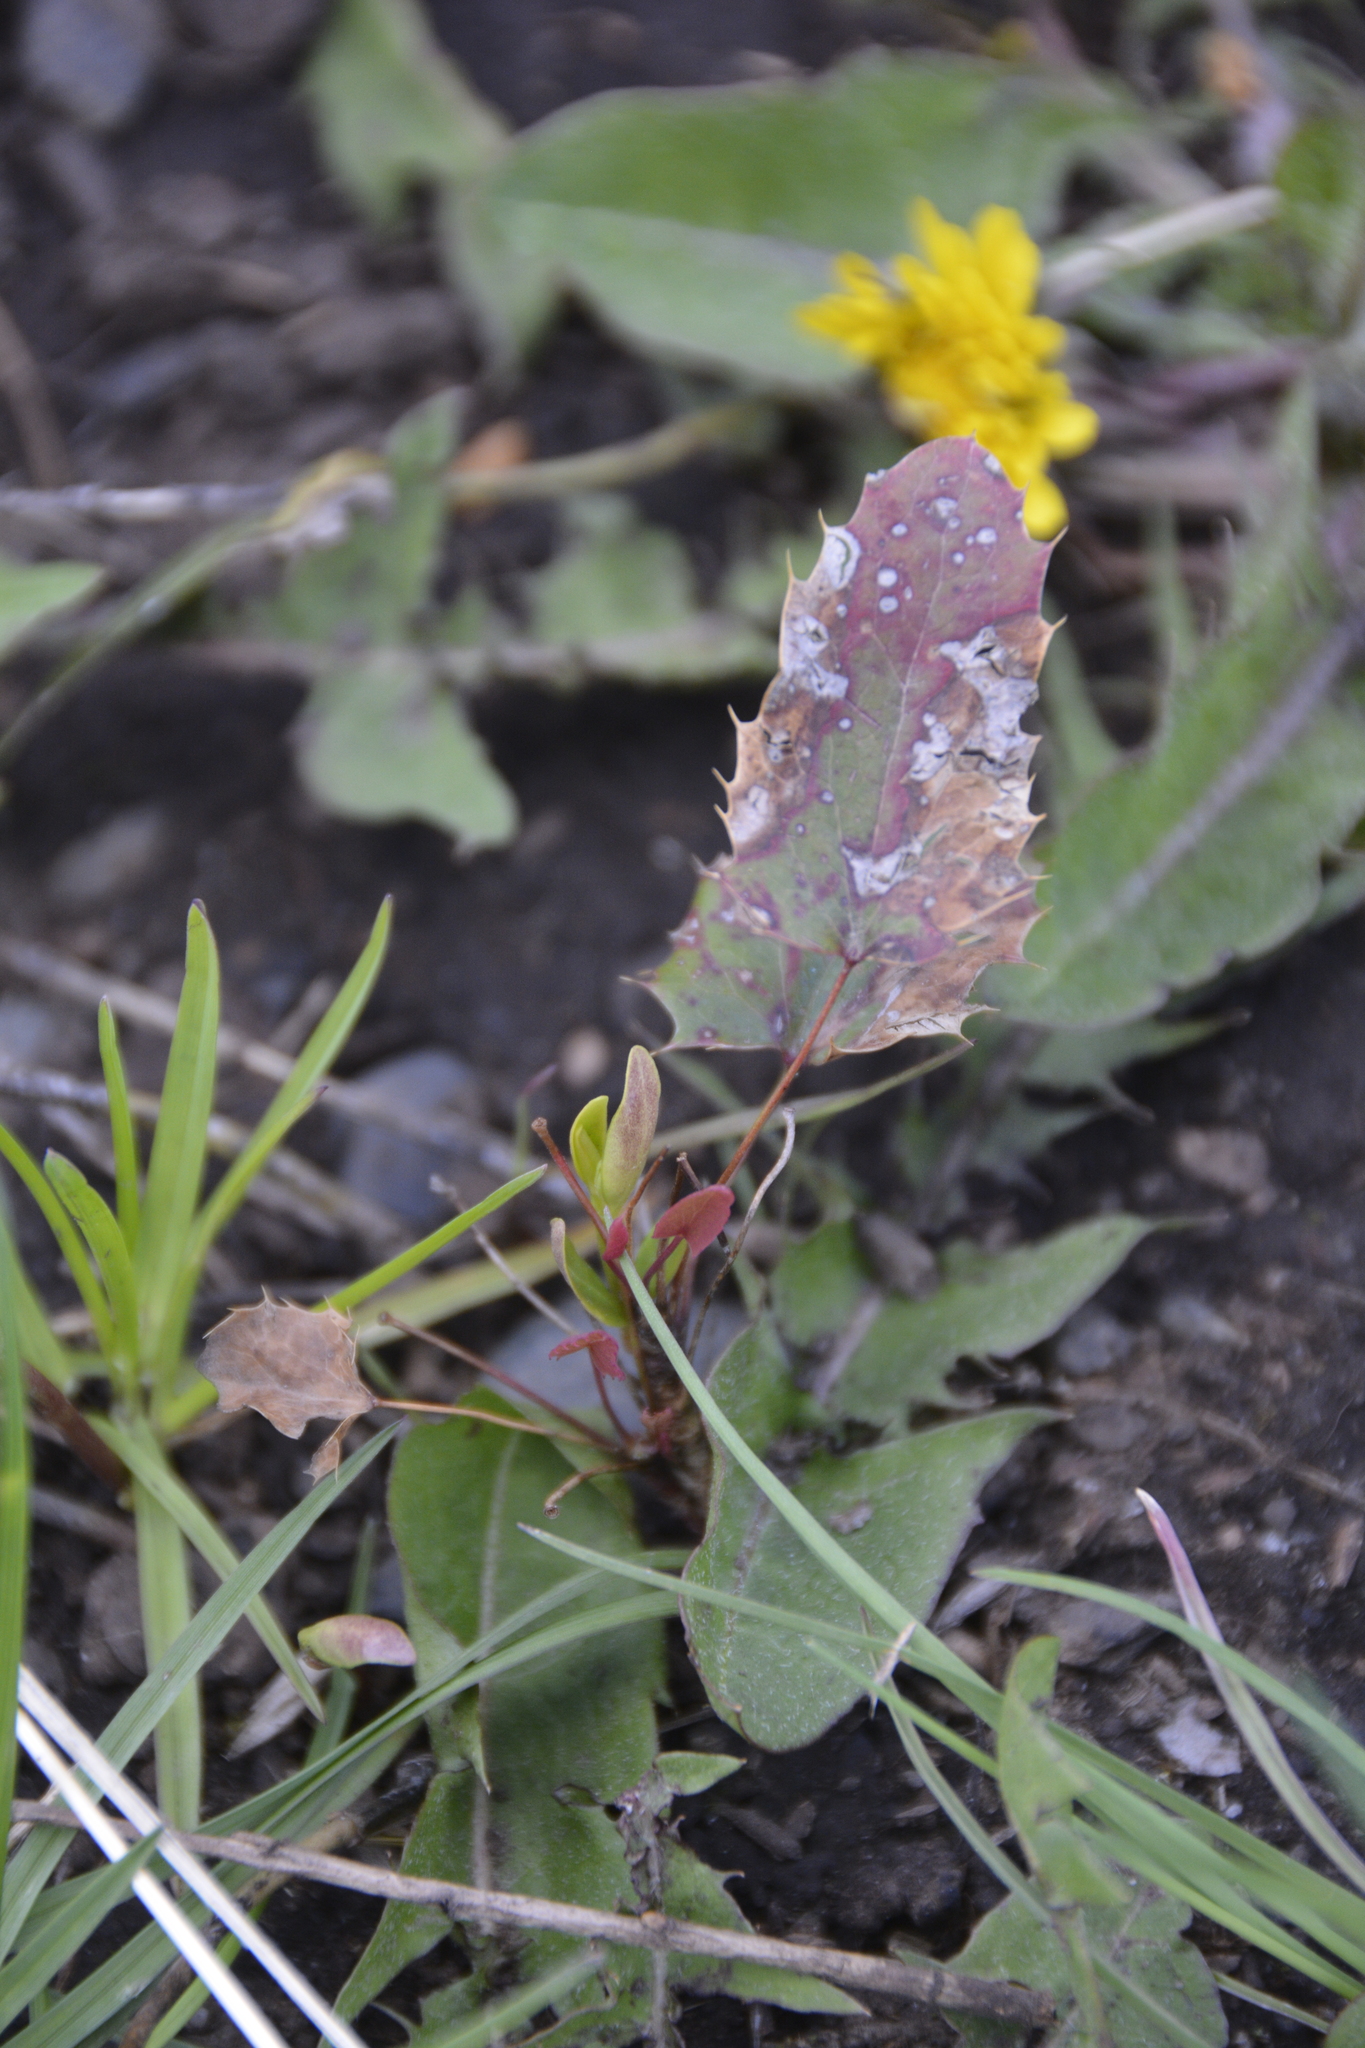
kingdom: Plantae
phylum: Tracheophyta
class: Magnoliopsida
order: Ranunculales
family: Berberidaceae
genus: Mahonia
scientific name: Mahonia repens
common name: Creeping oregon-grape
